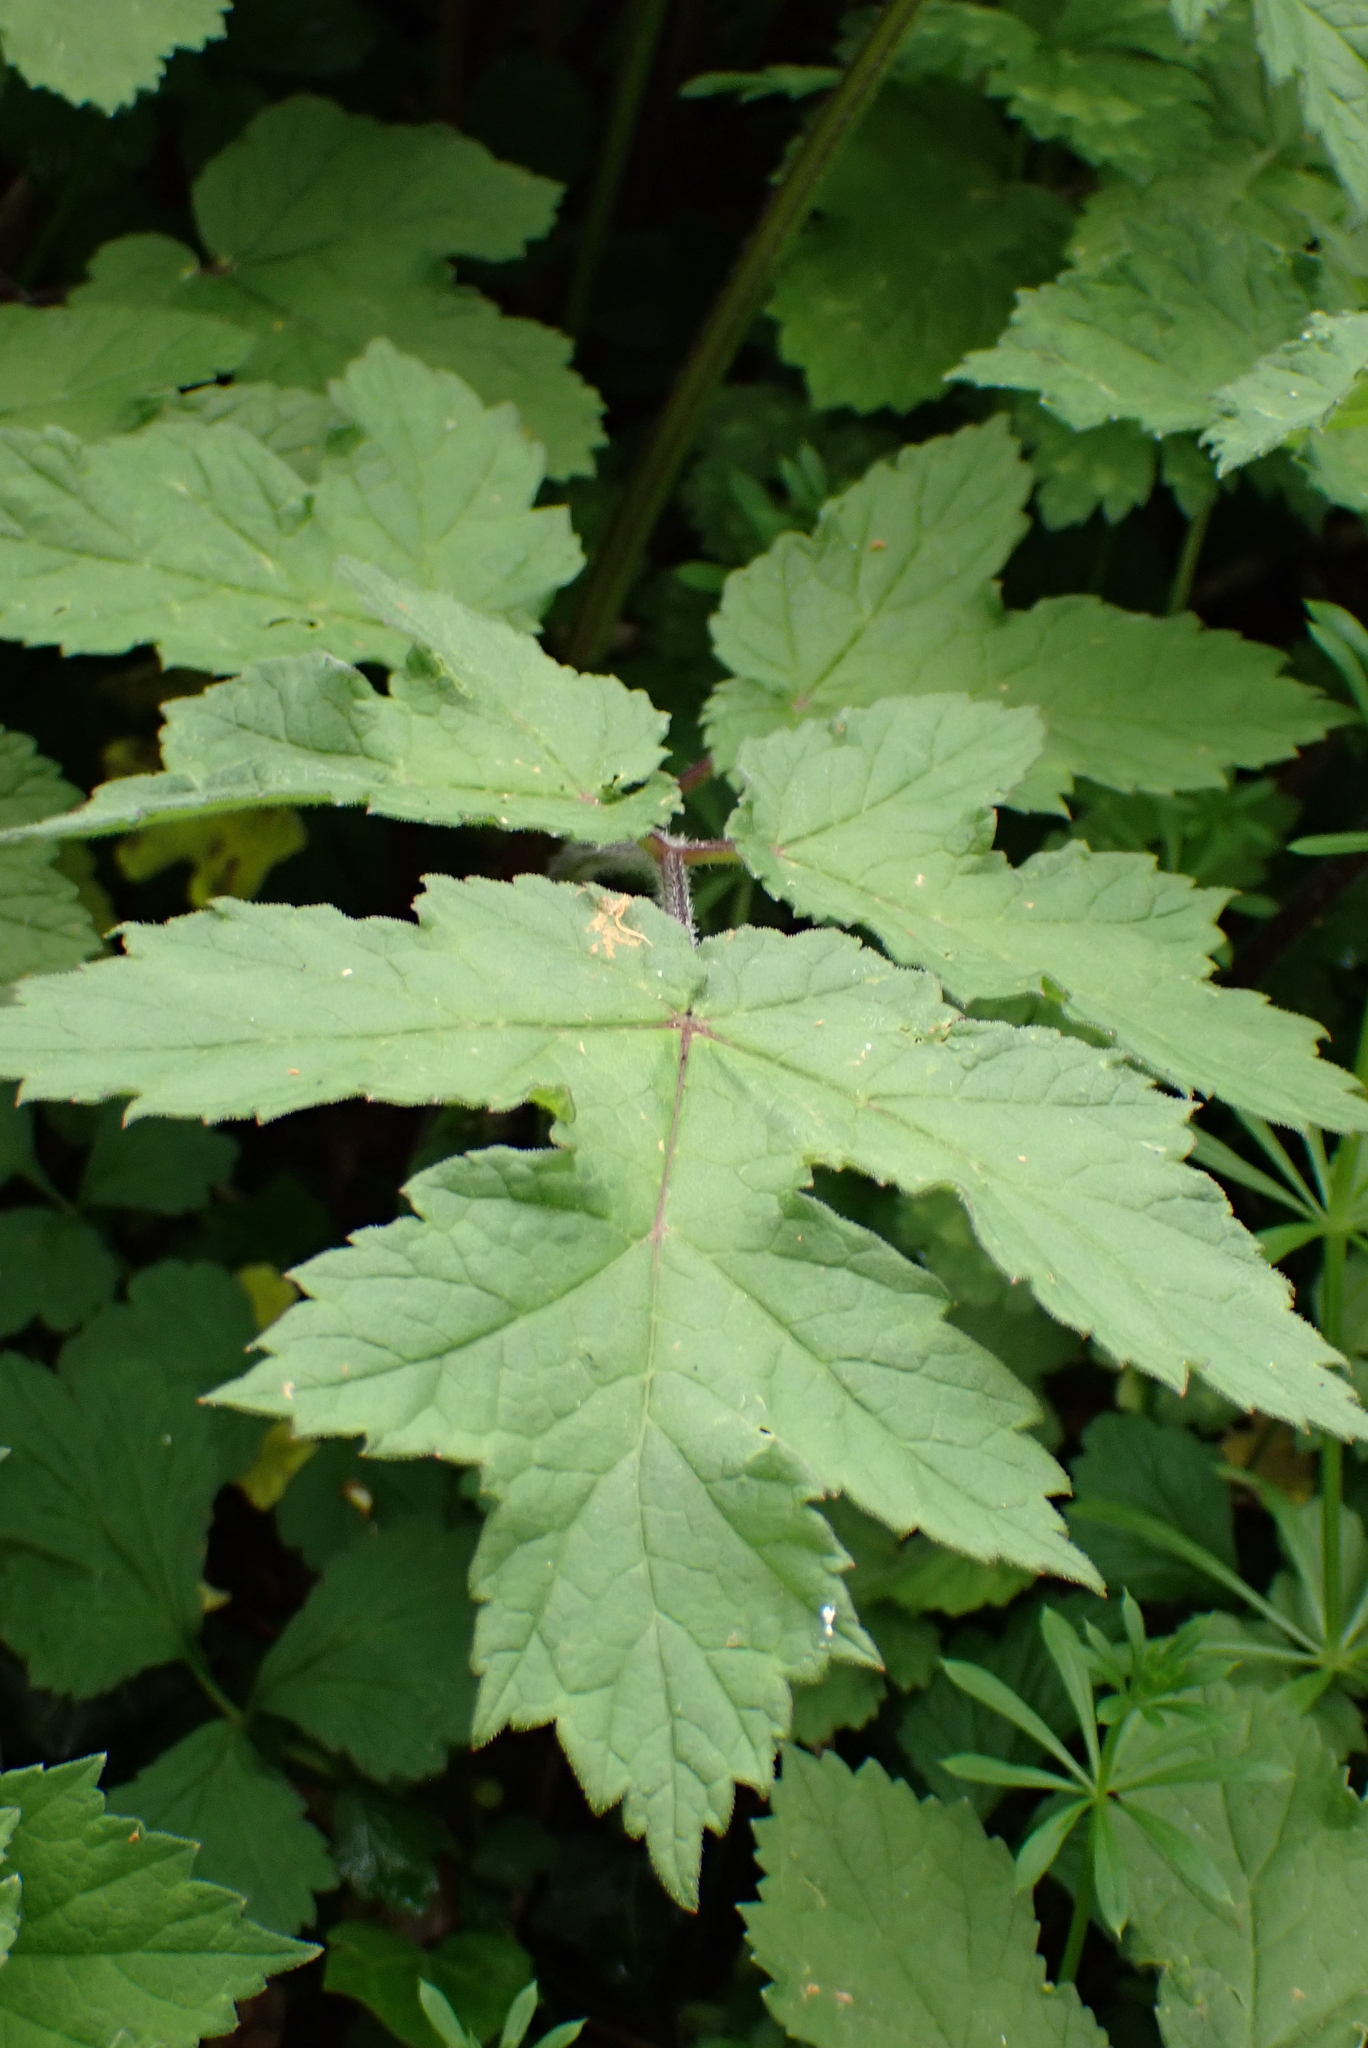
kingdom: Plantae
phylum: Tracheophyta
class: Magnoliopsida
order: Apiales
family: Apiaceae
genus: Heracleum
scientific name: Heracleum sphondylium
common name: Hogweed
